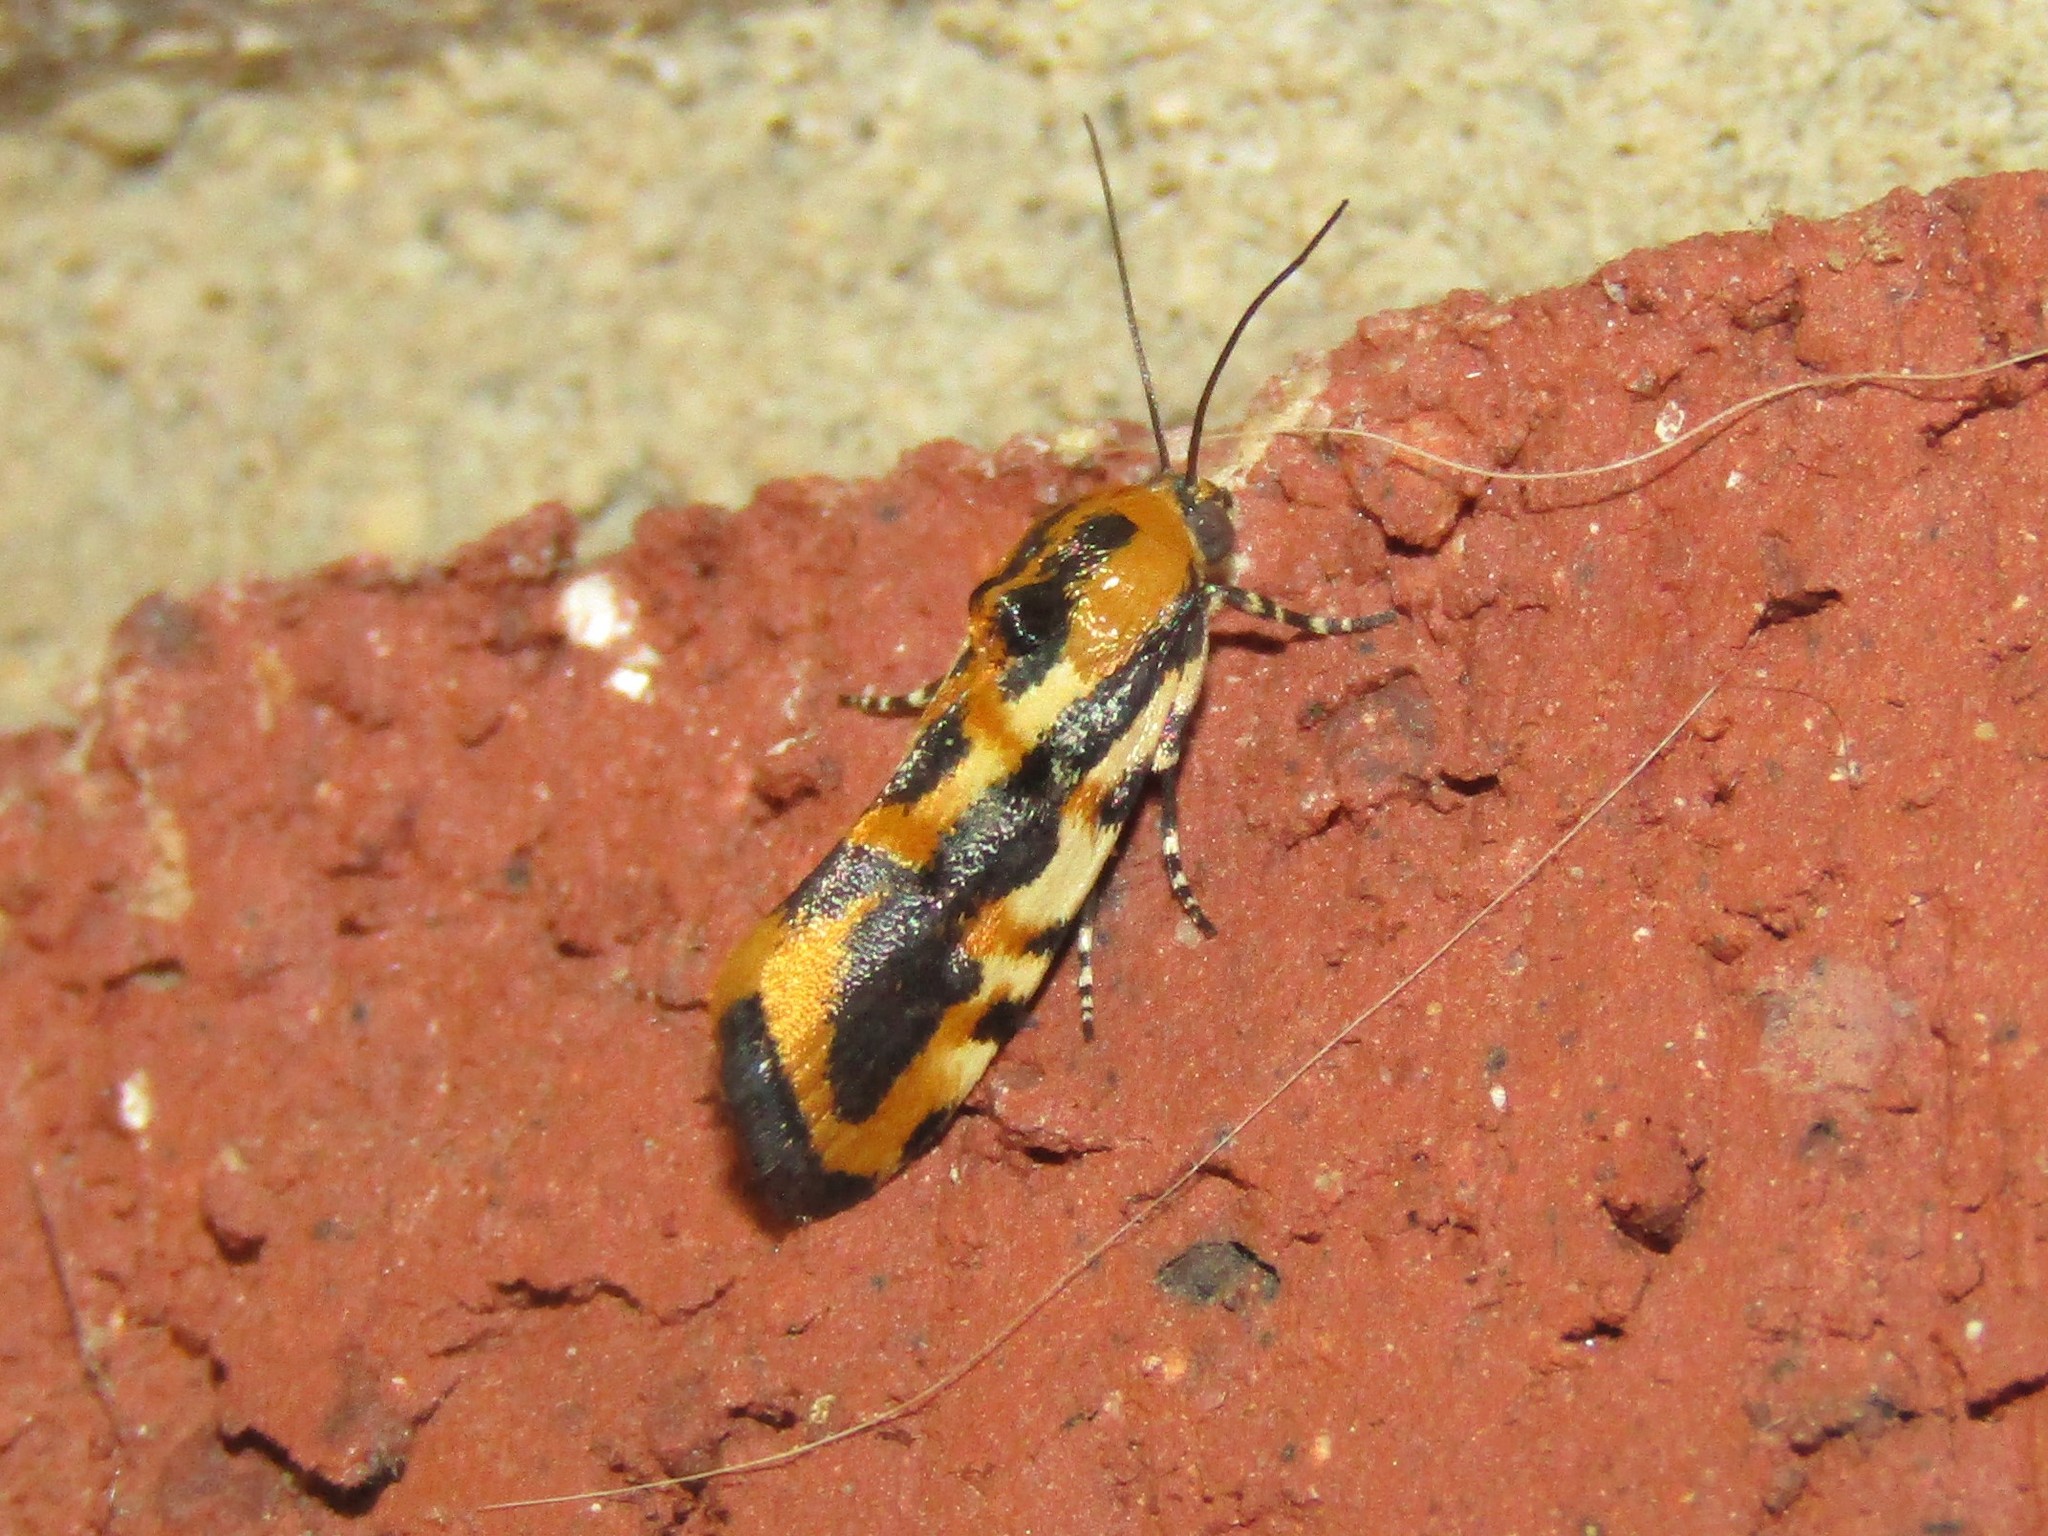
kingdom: Animalia
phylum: Arthropoda
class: Insecta
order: Lepidoptera
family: Noctuidae
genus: Acontia
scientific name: Acontia leo
